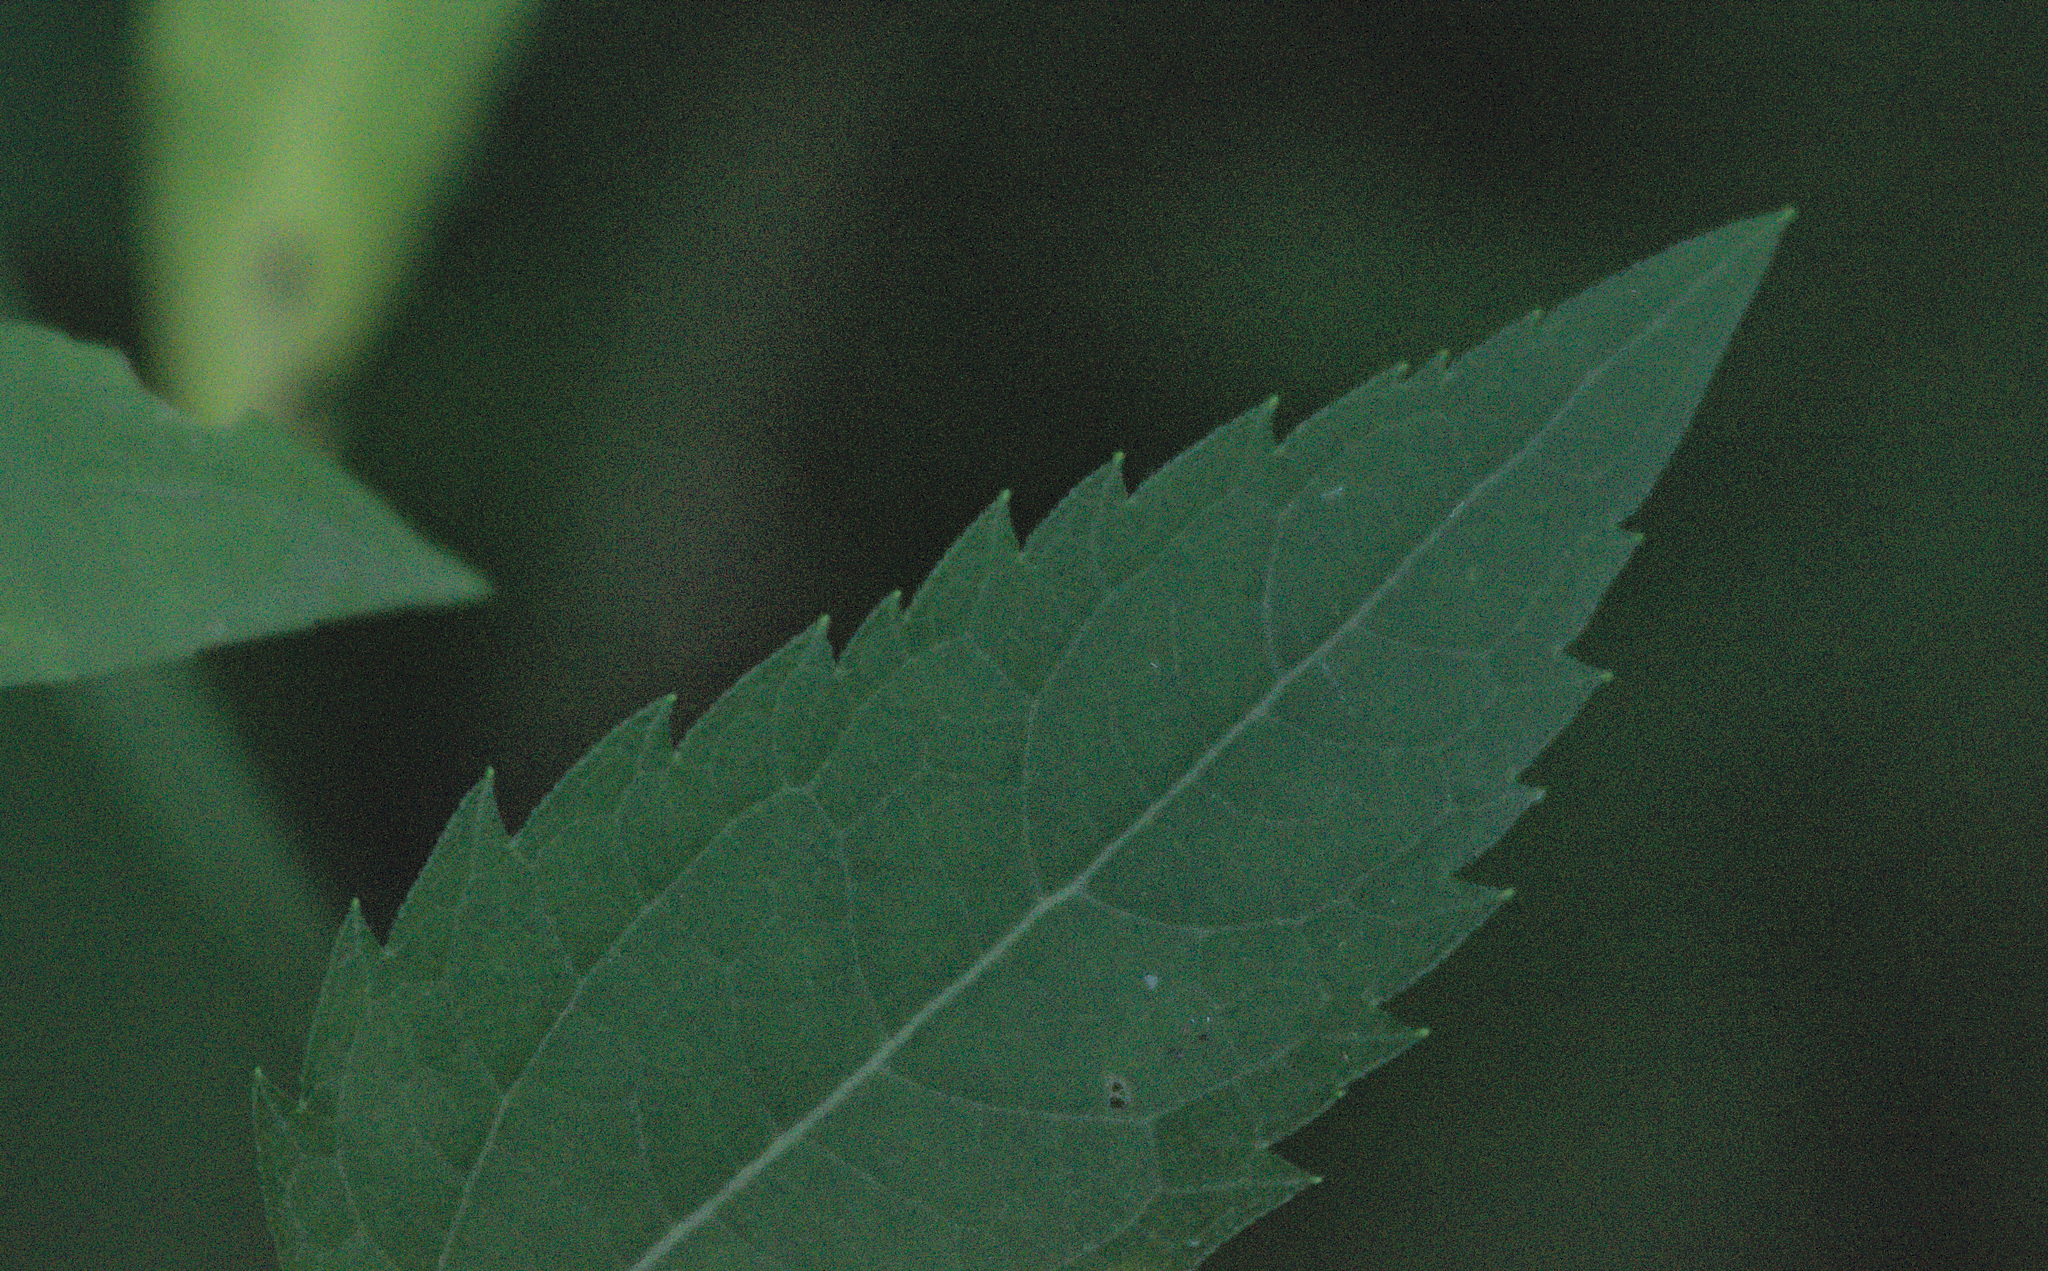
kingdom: Plantae
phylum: Tracheophyta
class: Magnoliopsida
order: Asterales
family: Asteraceae
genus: Heliopsis
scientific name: Heliopsis helianthoides
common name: False sunflower
